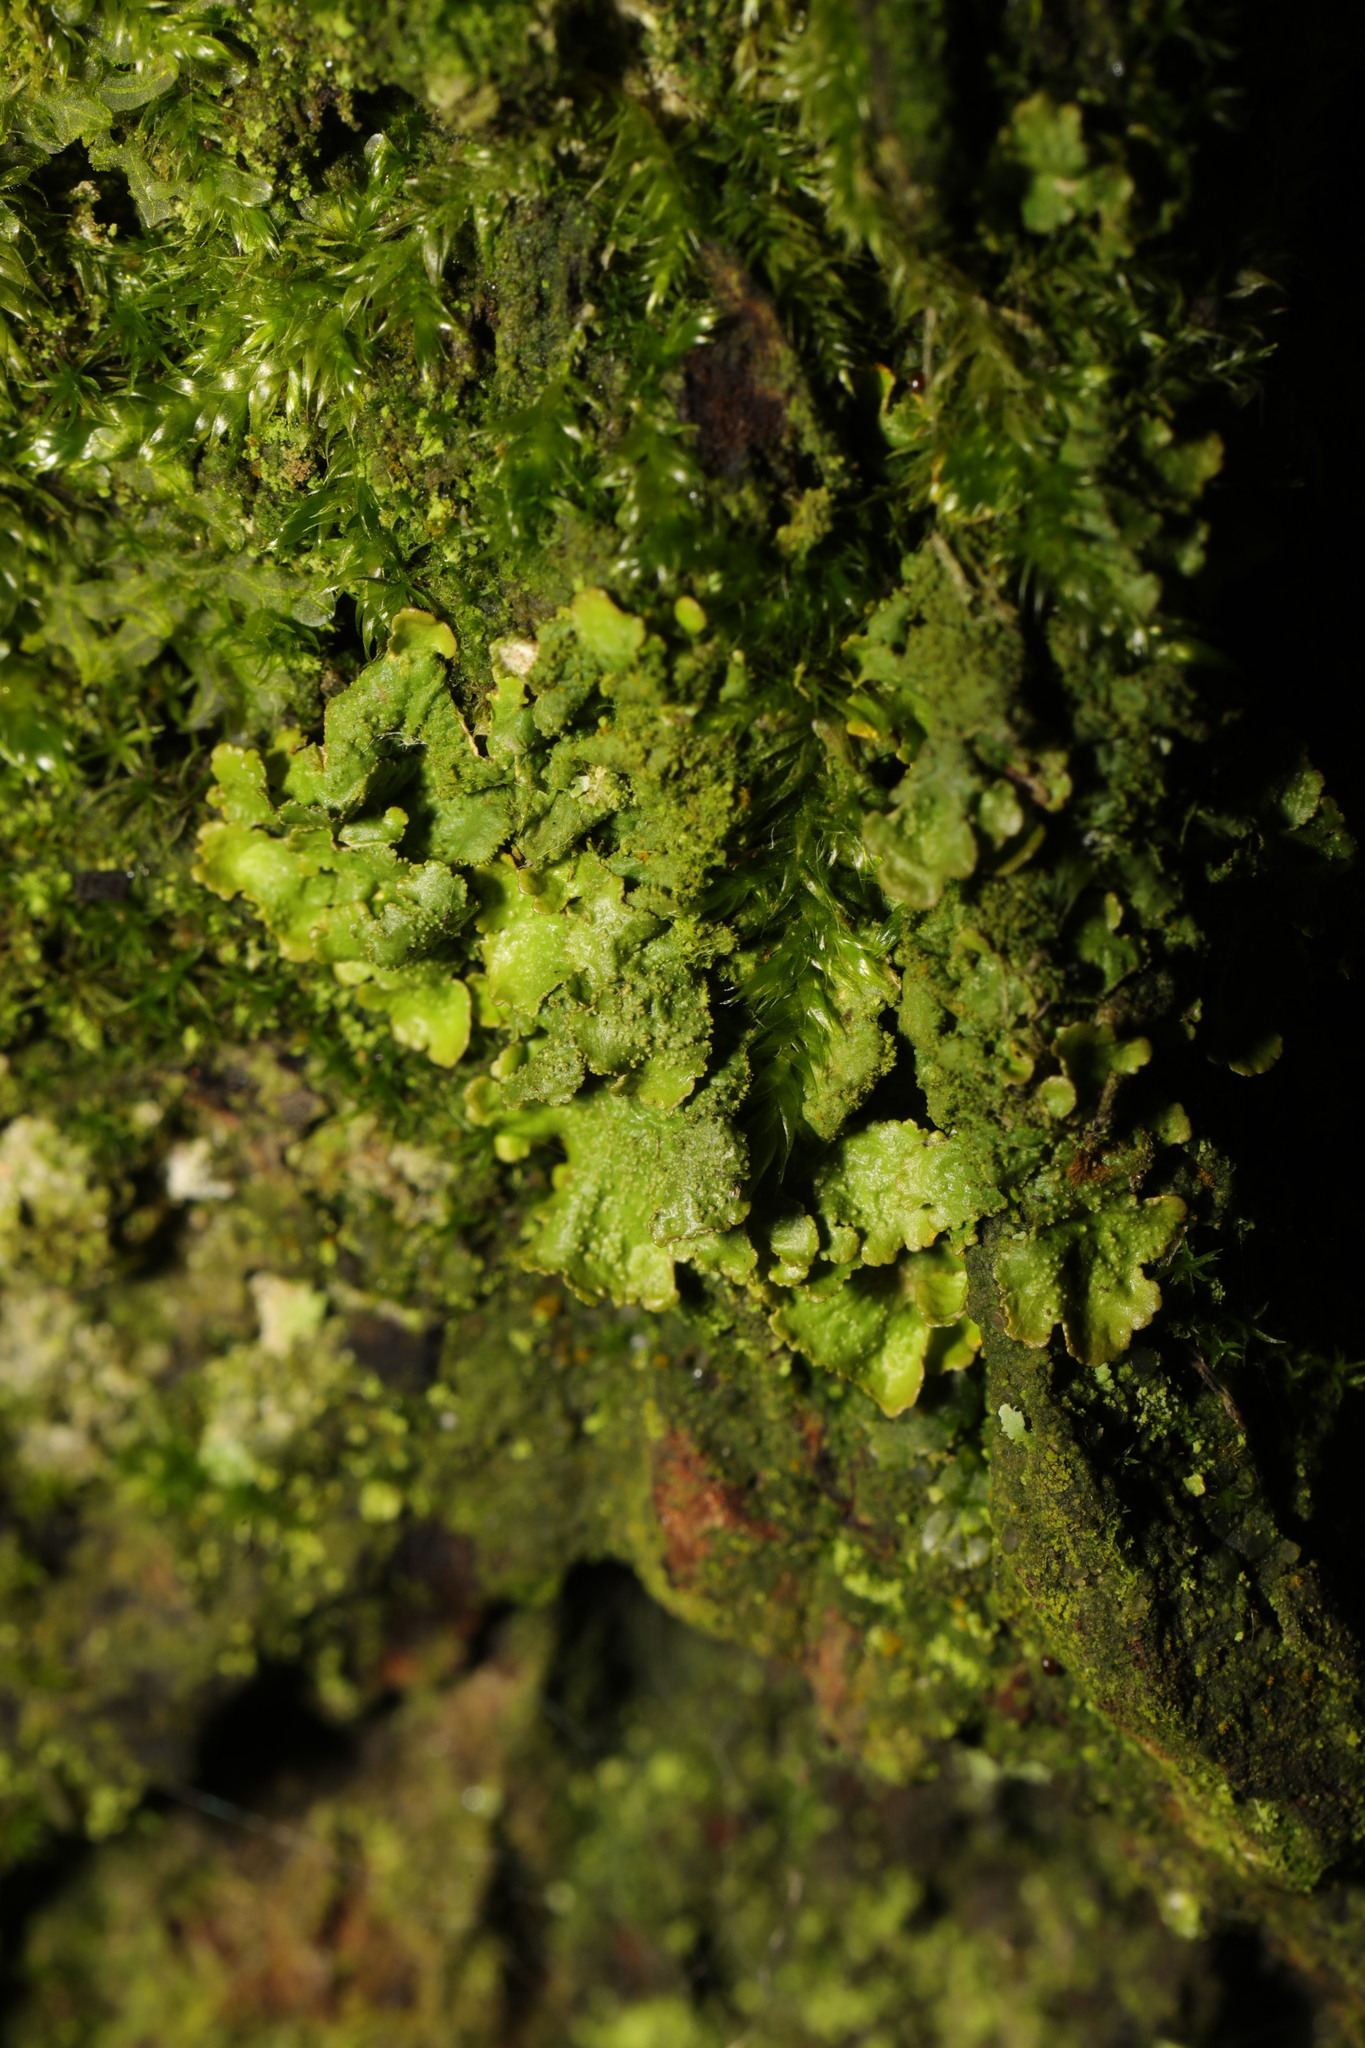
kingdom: Fungi
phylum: Ascomycota
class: Lecanoromycetes
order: Teloschistales
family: Teloschistaceae
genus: Xanthoria
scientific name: Xanthoria parietina
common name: Common orange lichen
